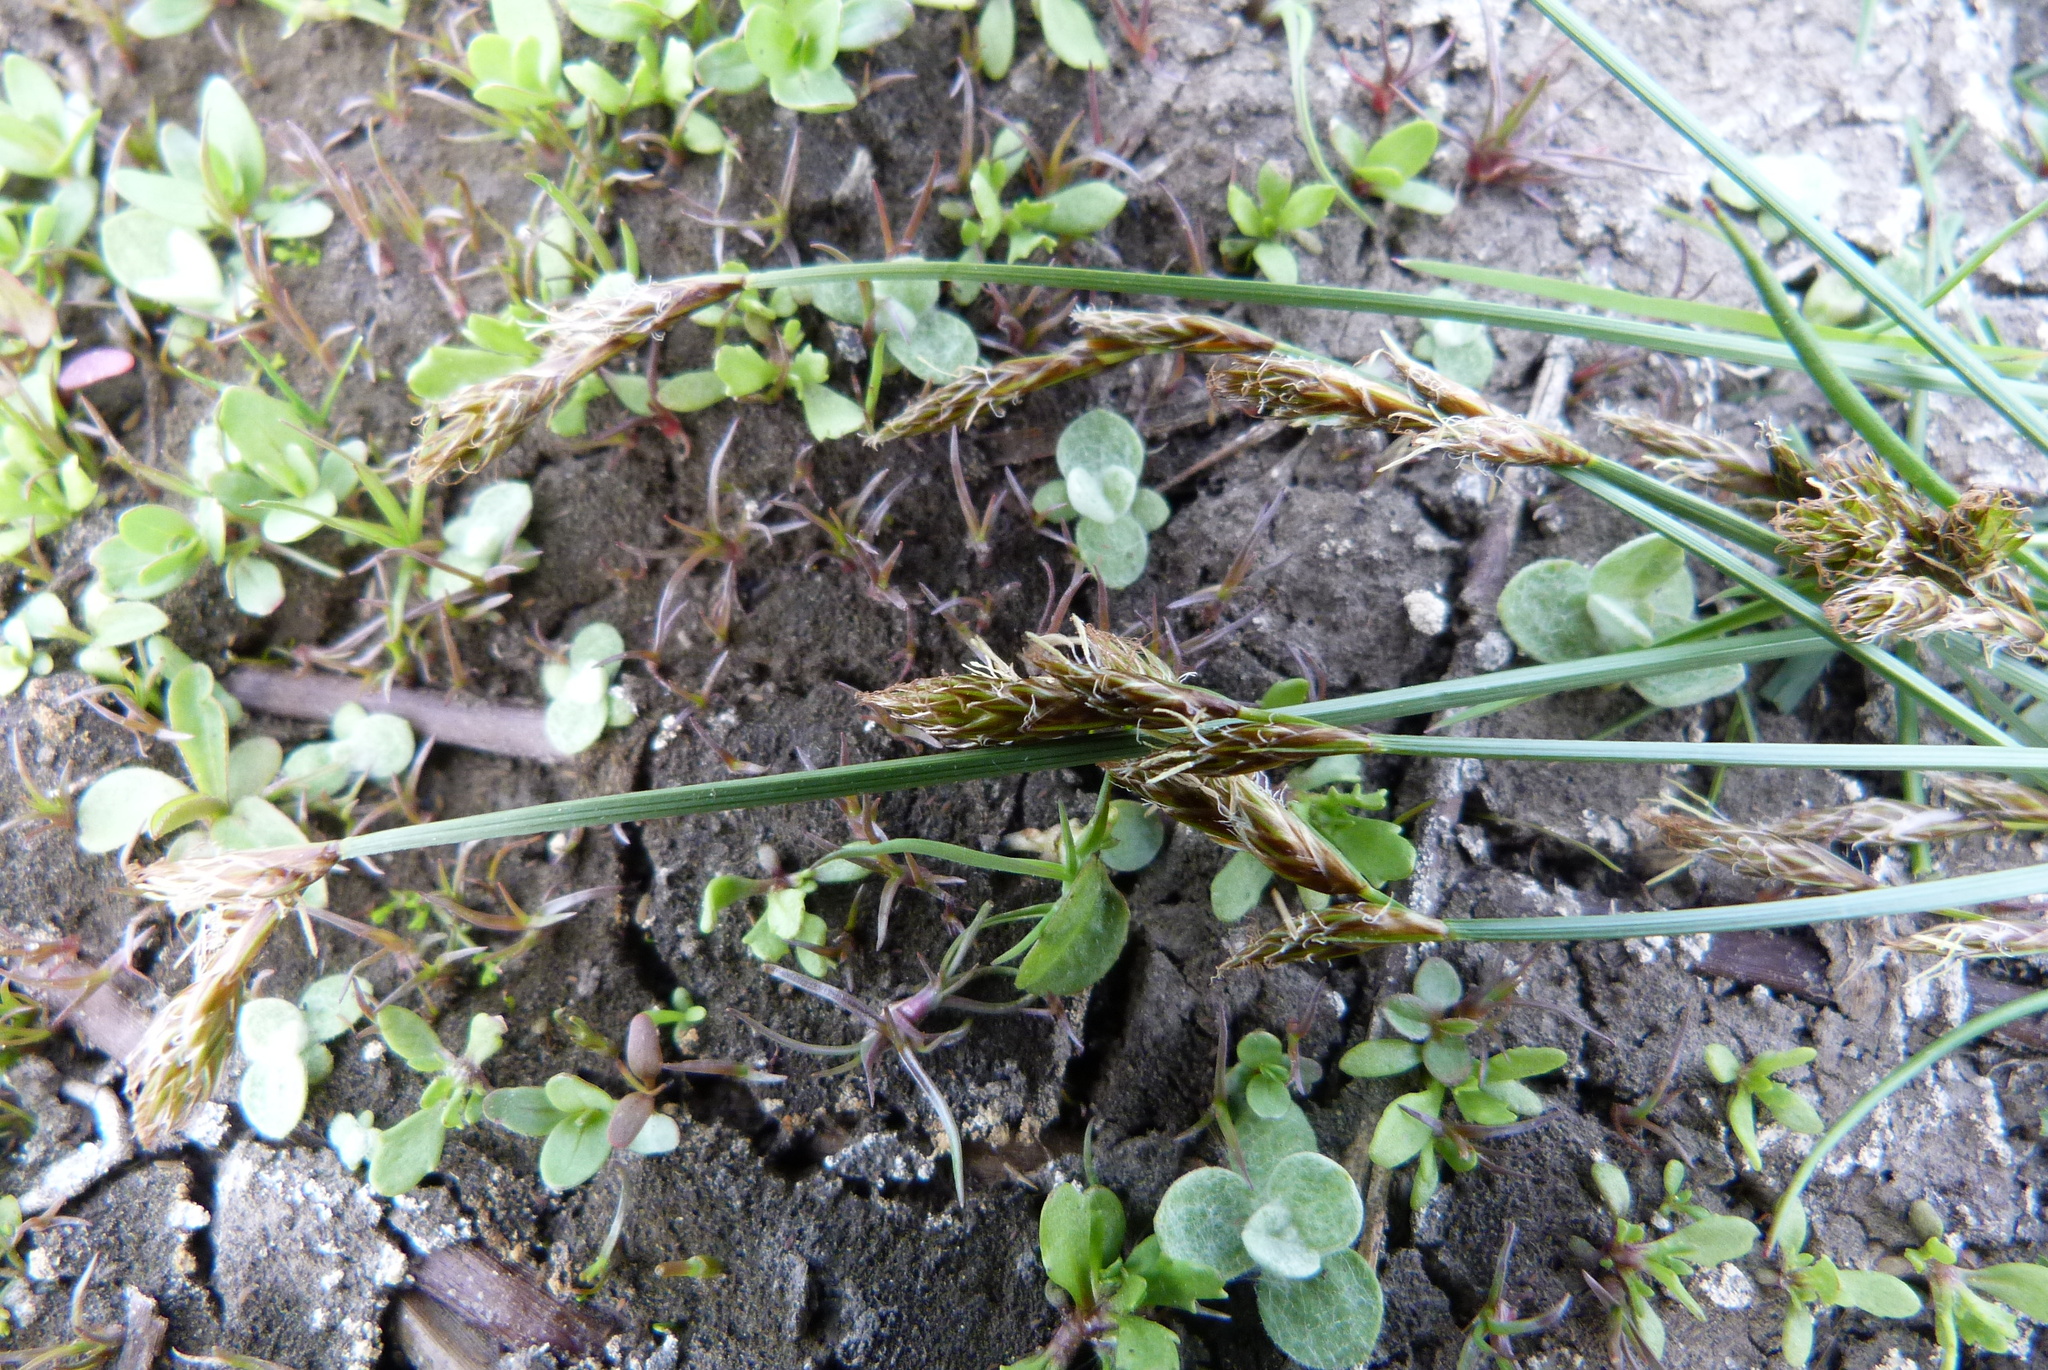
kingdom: Plantae
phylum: Tracheophyta
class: Liliopsida
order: Poales
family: Cyperaceae
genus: Carex
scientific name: Carex leporina
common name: Oval sedge
